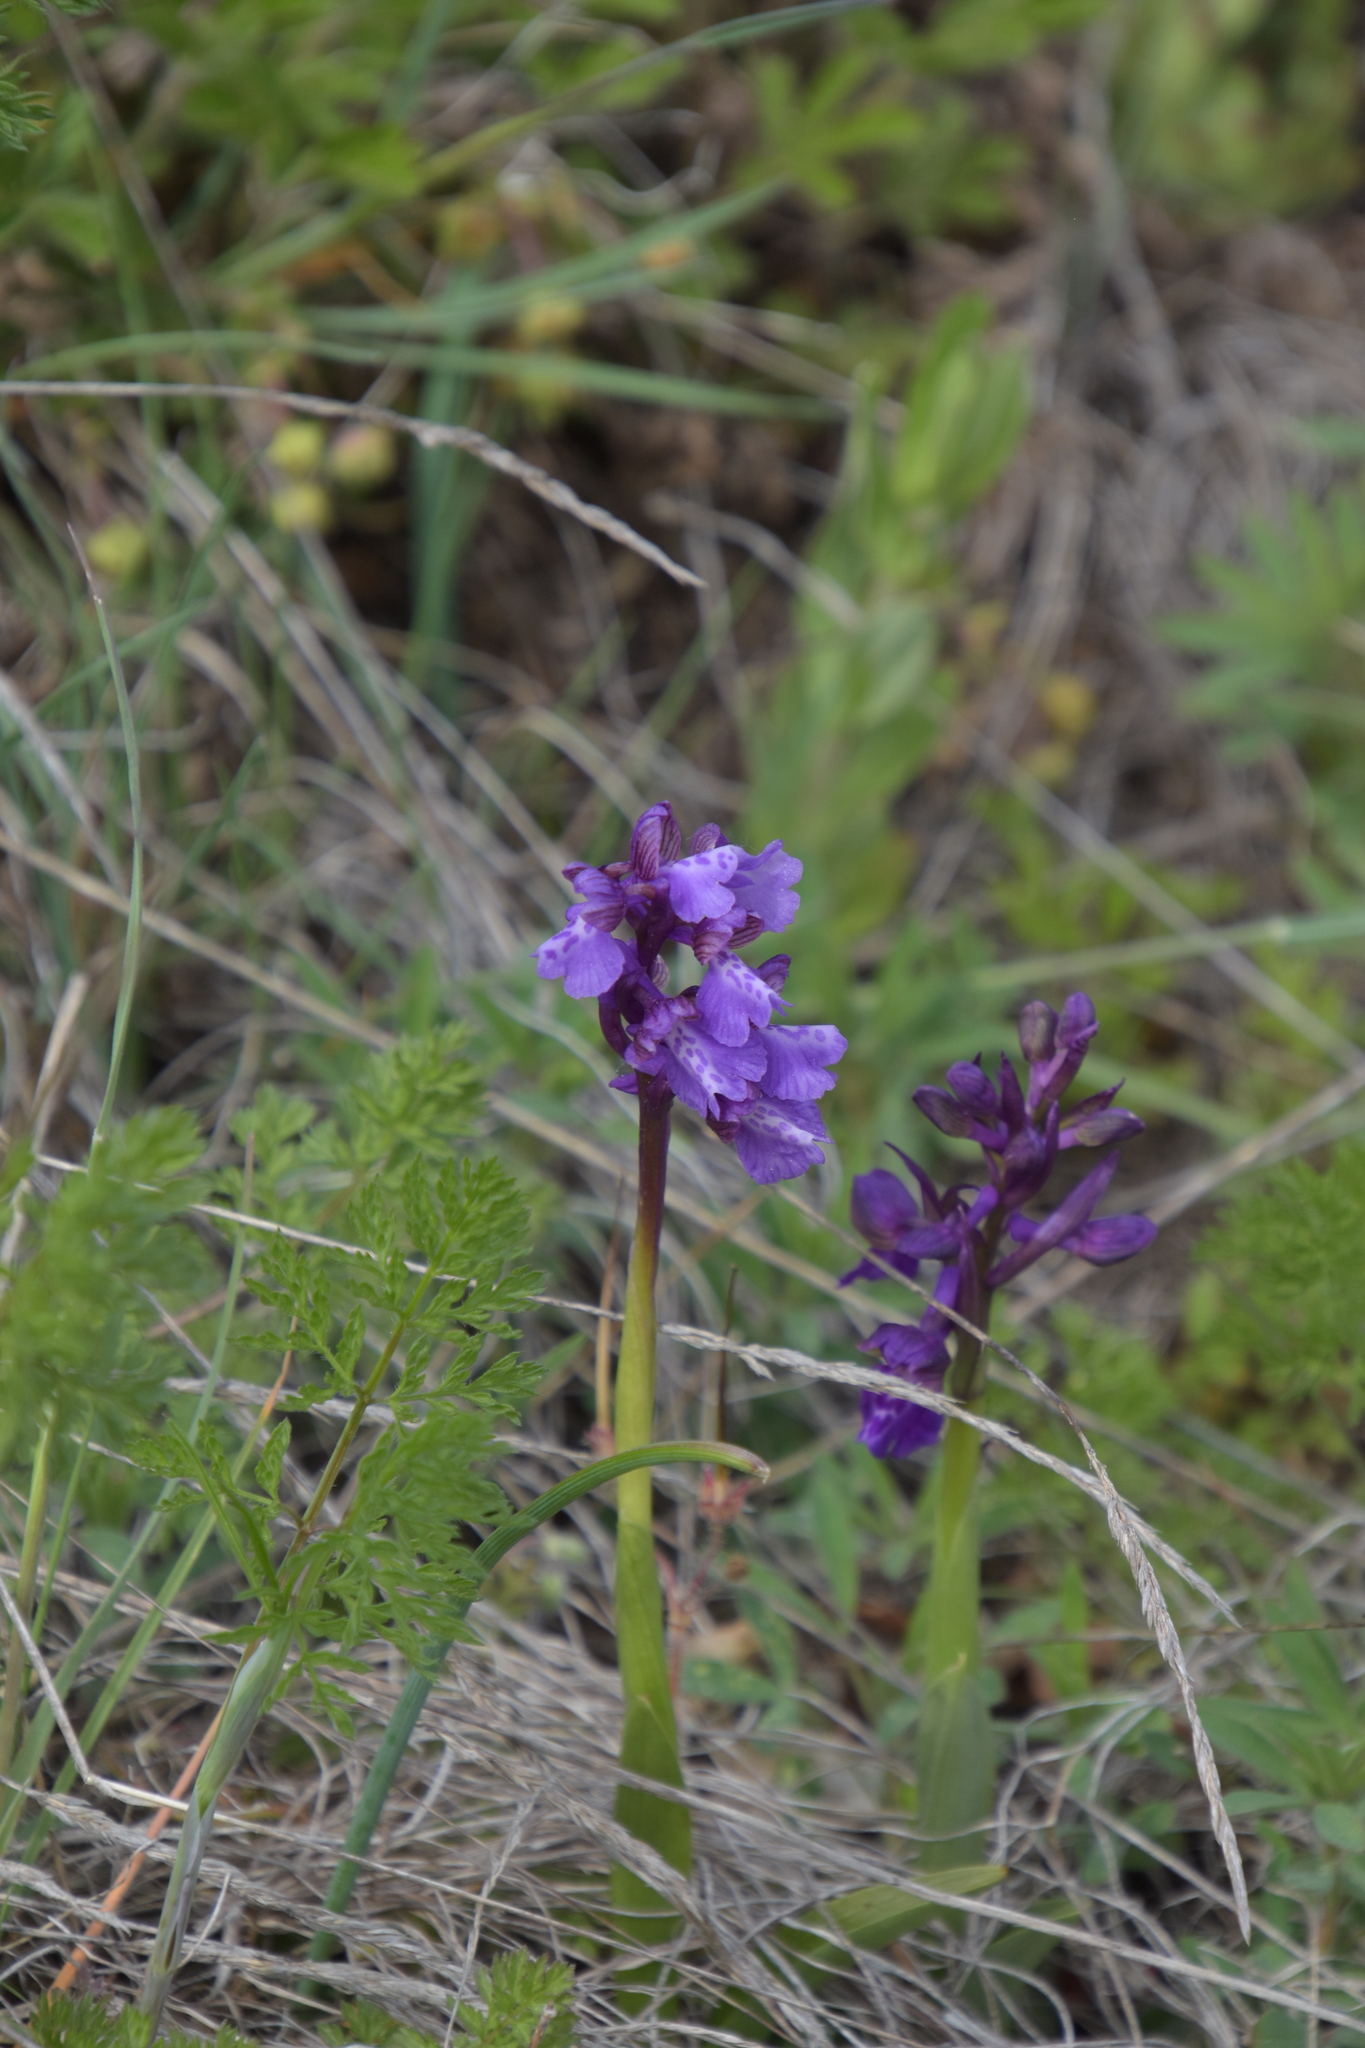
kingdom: Plantae
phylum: Tracheophyta
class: Liliopsida
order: Asparagales
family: Orchidaceae
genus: Anacamptis
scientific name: Anacamptis morio
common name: Green-winged orchid
